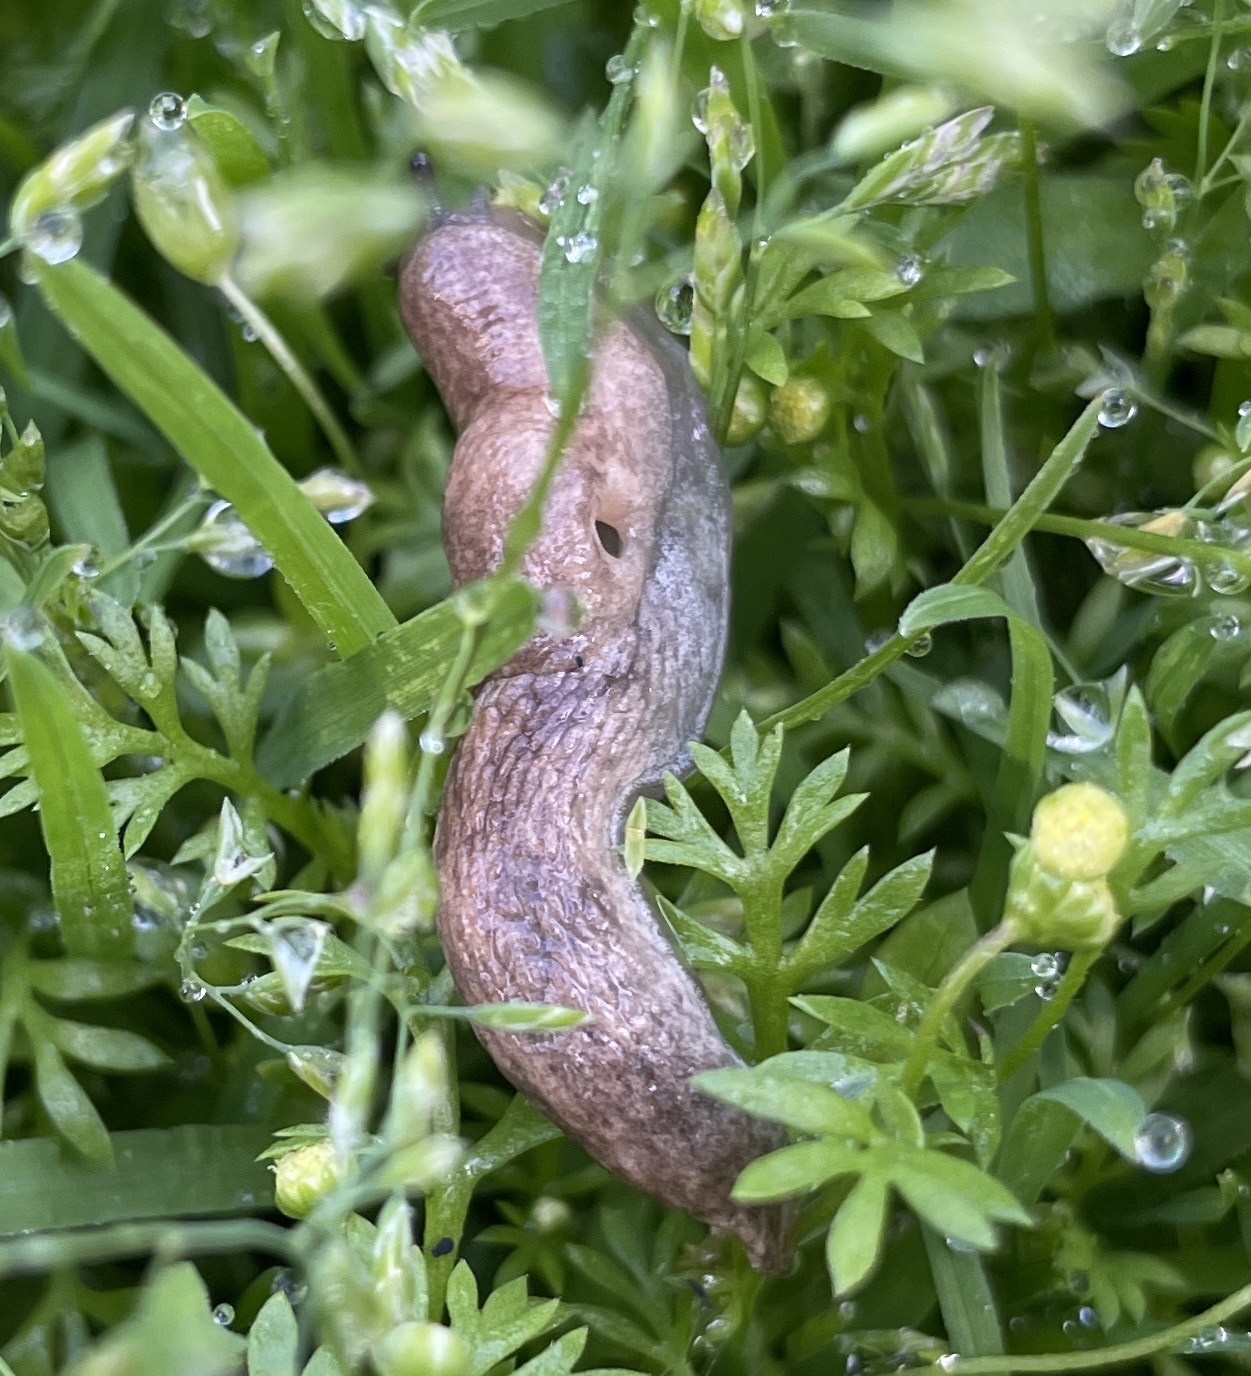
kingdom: Animalia
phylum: Mollusca
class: Gastropoda
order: Stylommatophora
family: Agriolimacidae
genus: Deroceras
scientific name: Deroceras reticulatum
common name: Gray field slug
